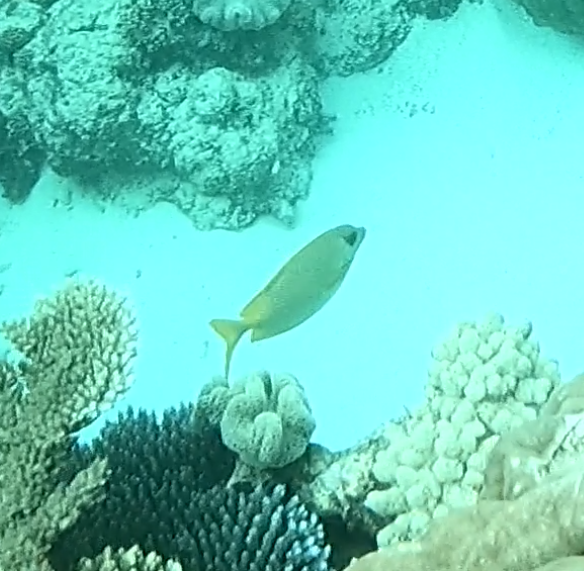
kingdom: Animalia
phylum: Chordata
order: Perciformes
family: Siganidae
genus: Siganus
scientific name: Siganus corallinus
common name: Coral rabbitfish
